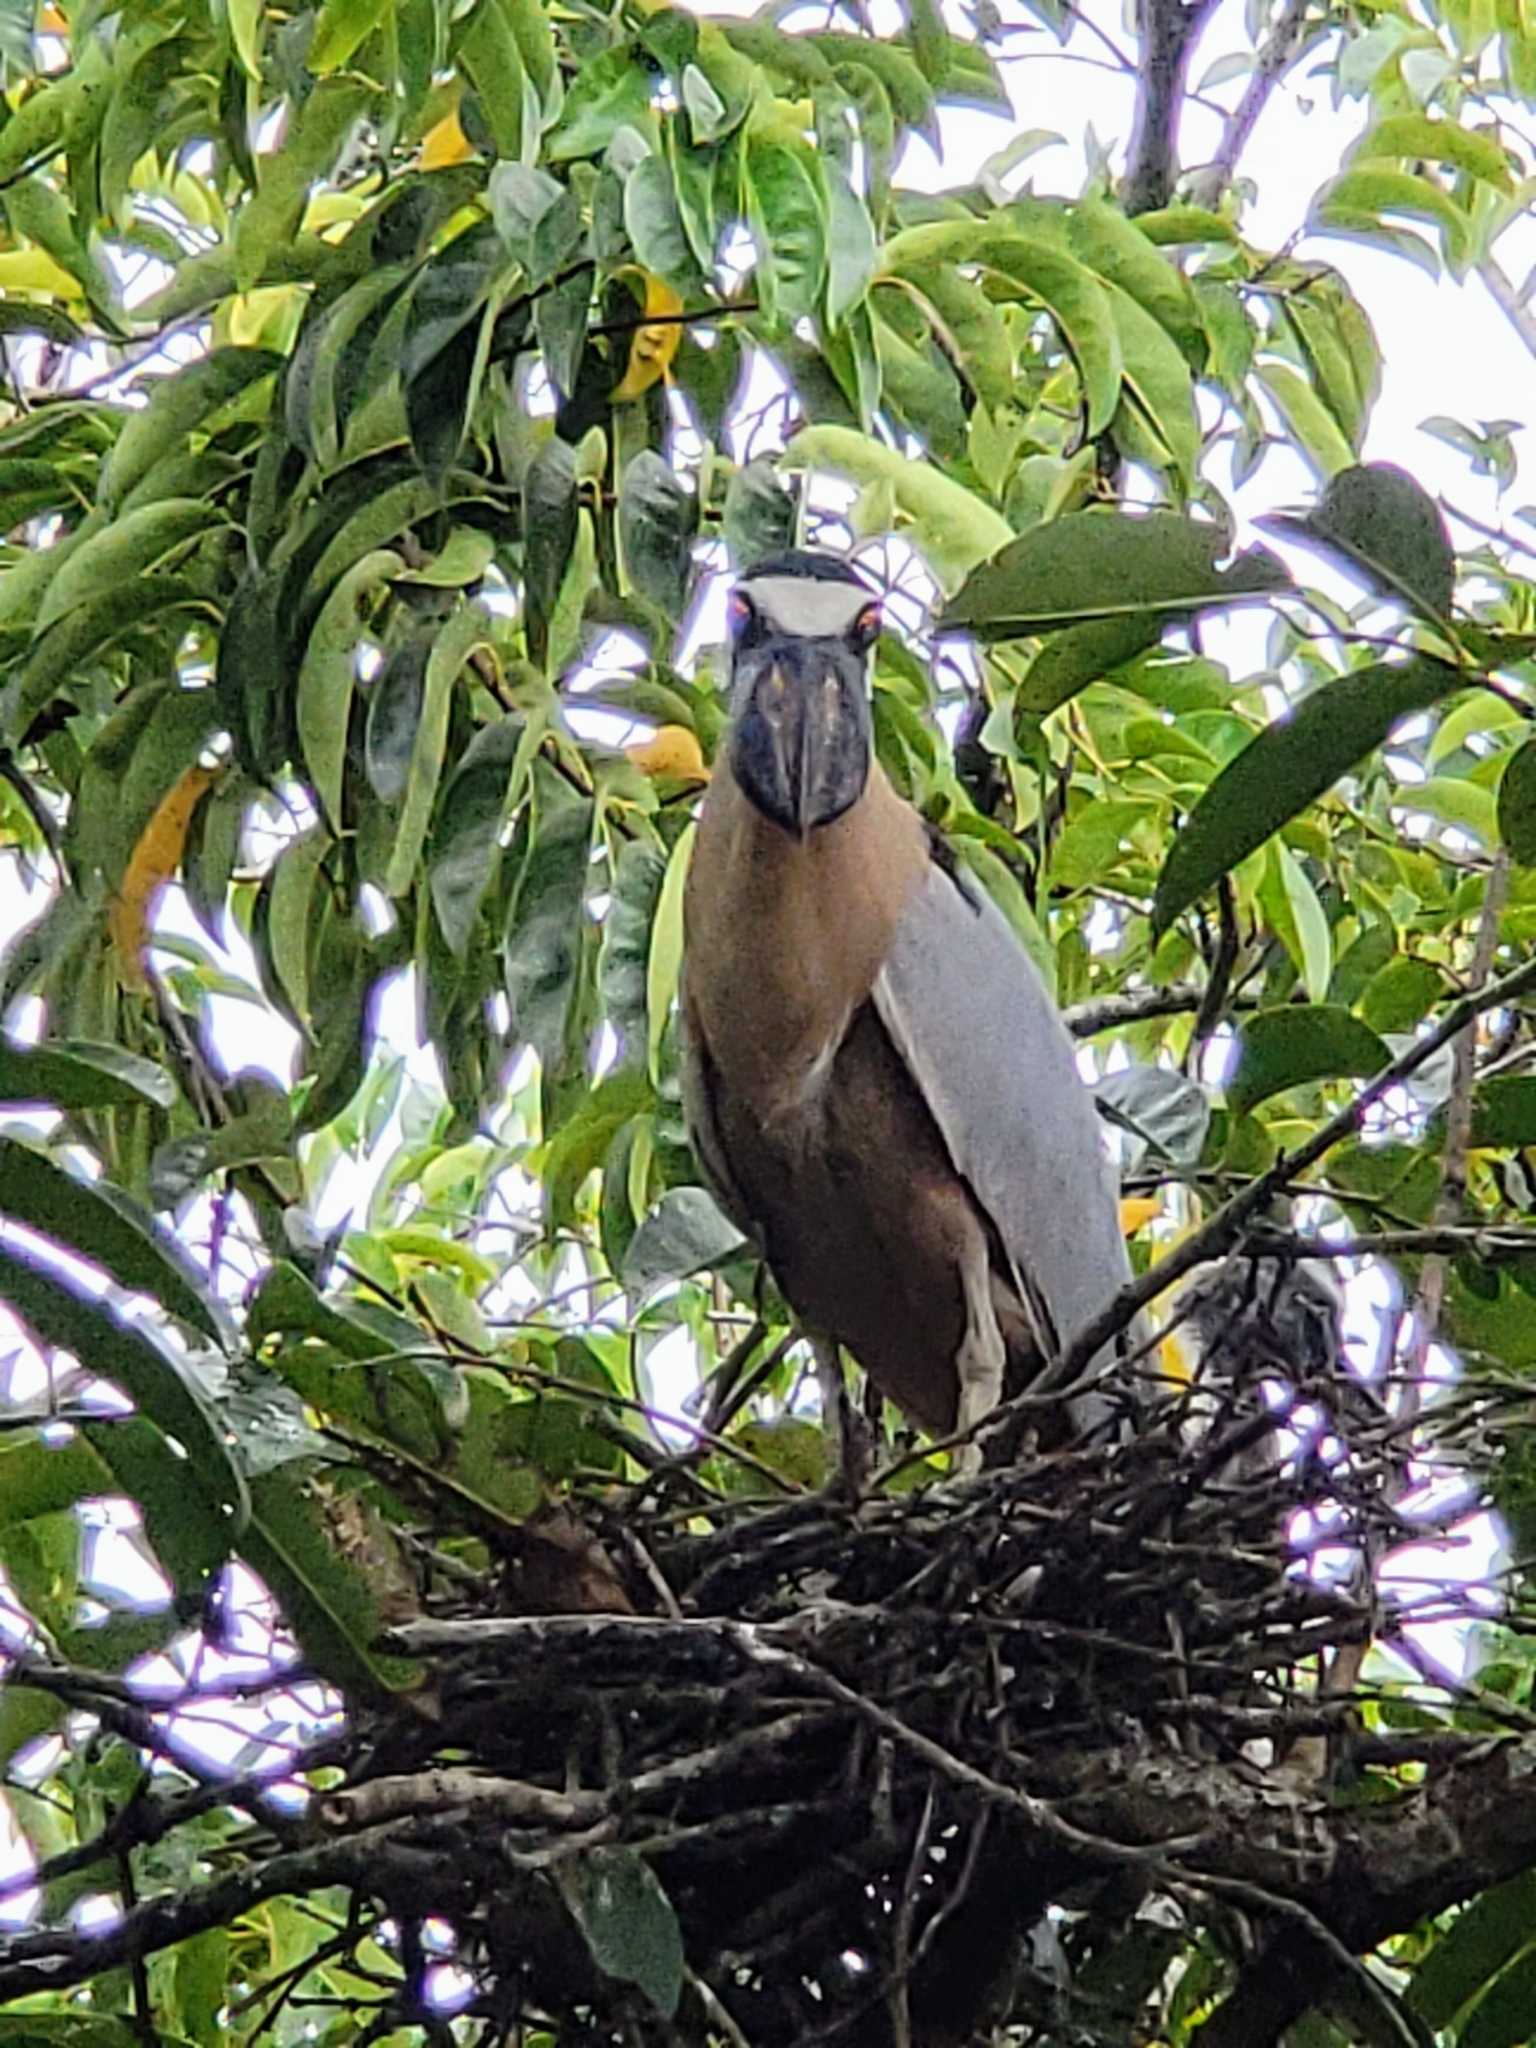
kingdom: Animalia
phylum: Chordata
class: Aves
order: Pelecaniformes
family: Ardeidae
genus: Cochlearius
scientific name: Cochlearius cochlearius
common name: Boat-billed heron
